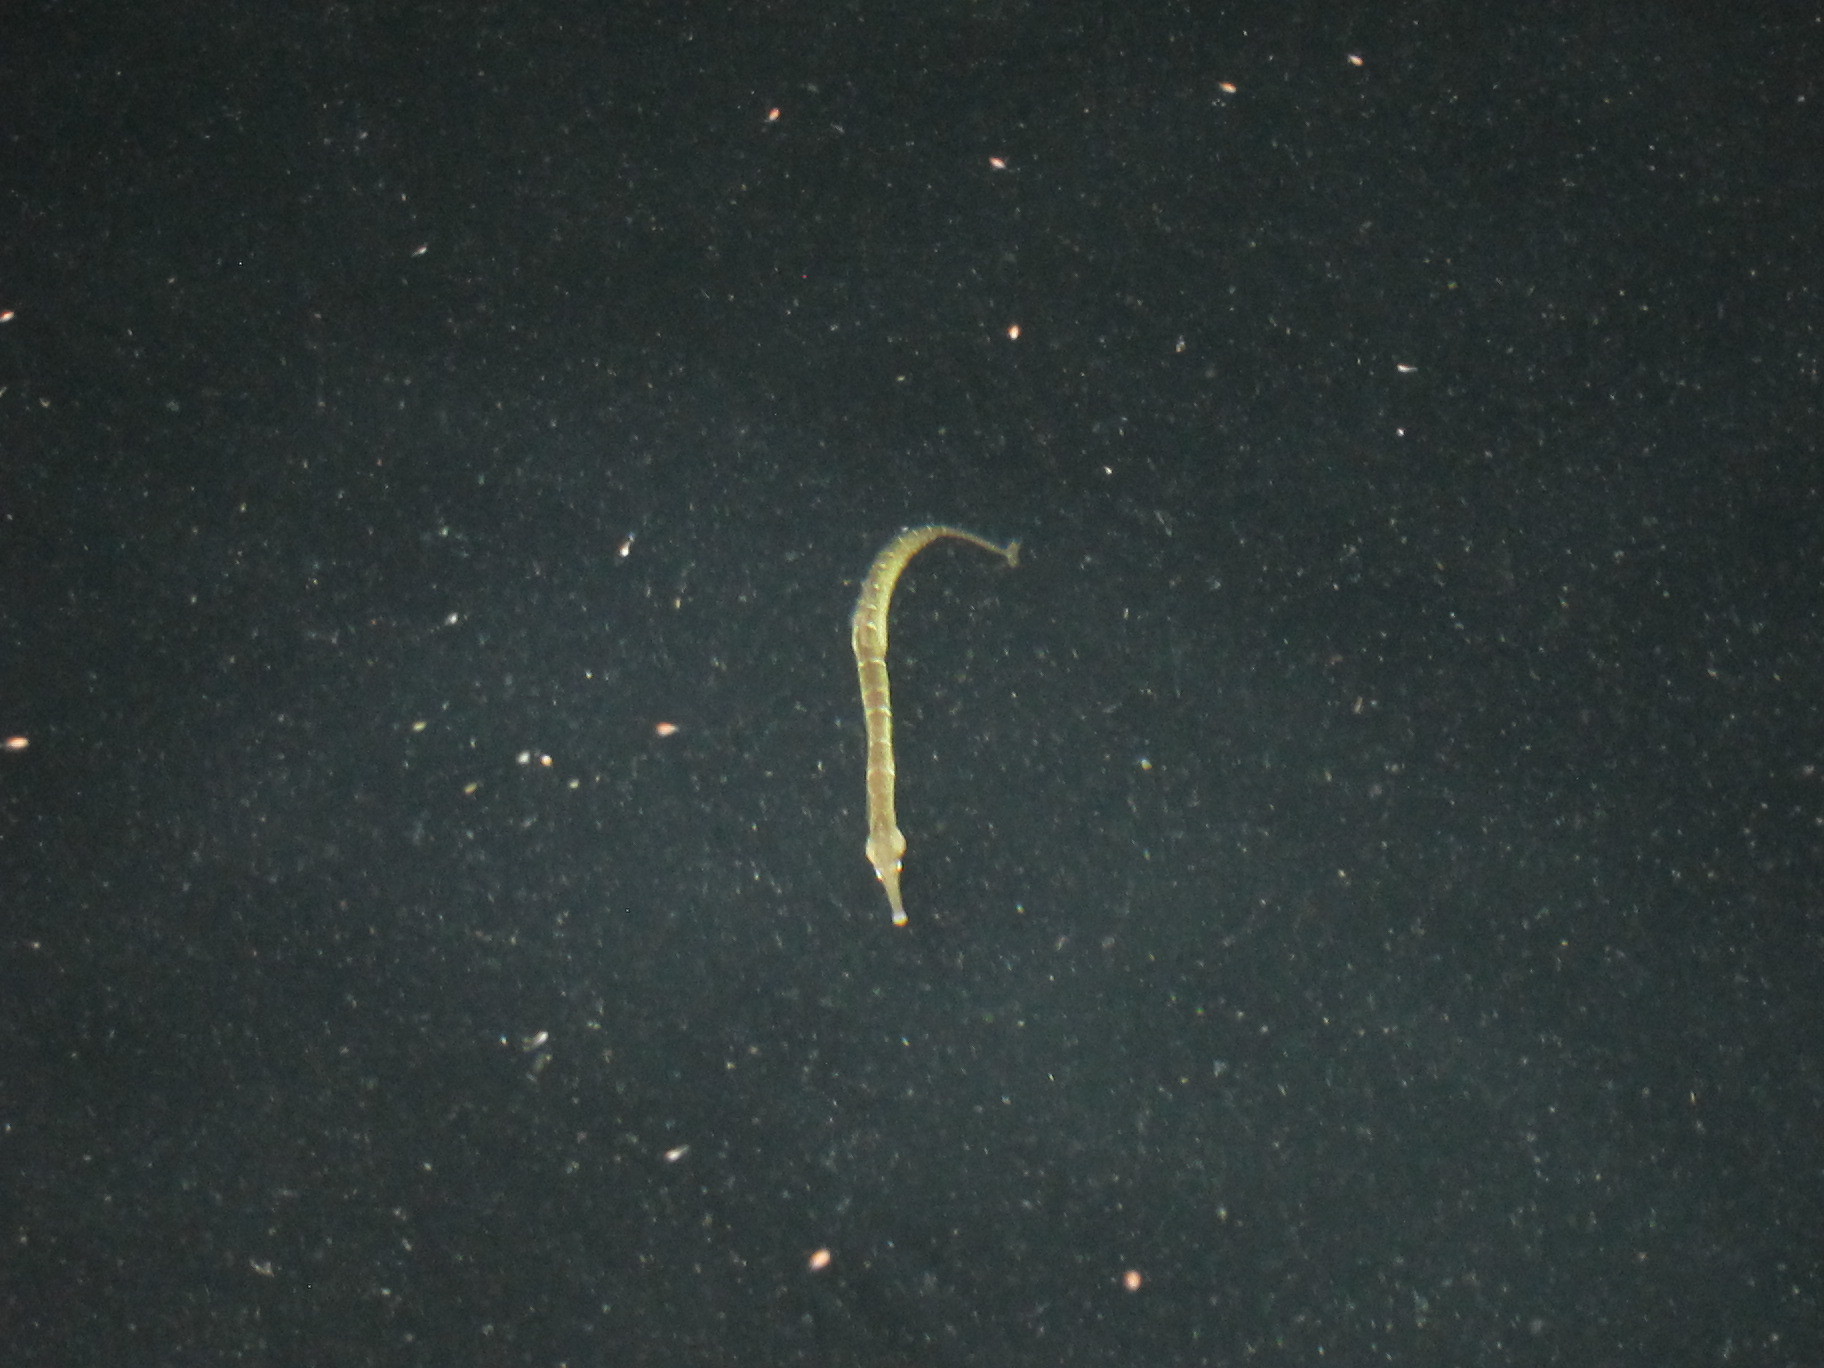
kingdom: Animalia
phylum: Chordata
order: Syngnathiformes
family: Syngnathidae
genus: Syngnathus
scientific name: Syngnathus californiensis
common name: Great pipefish
